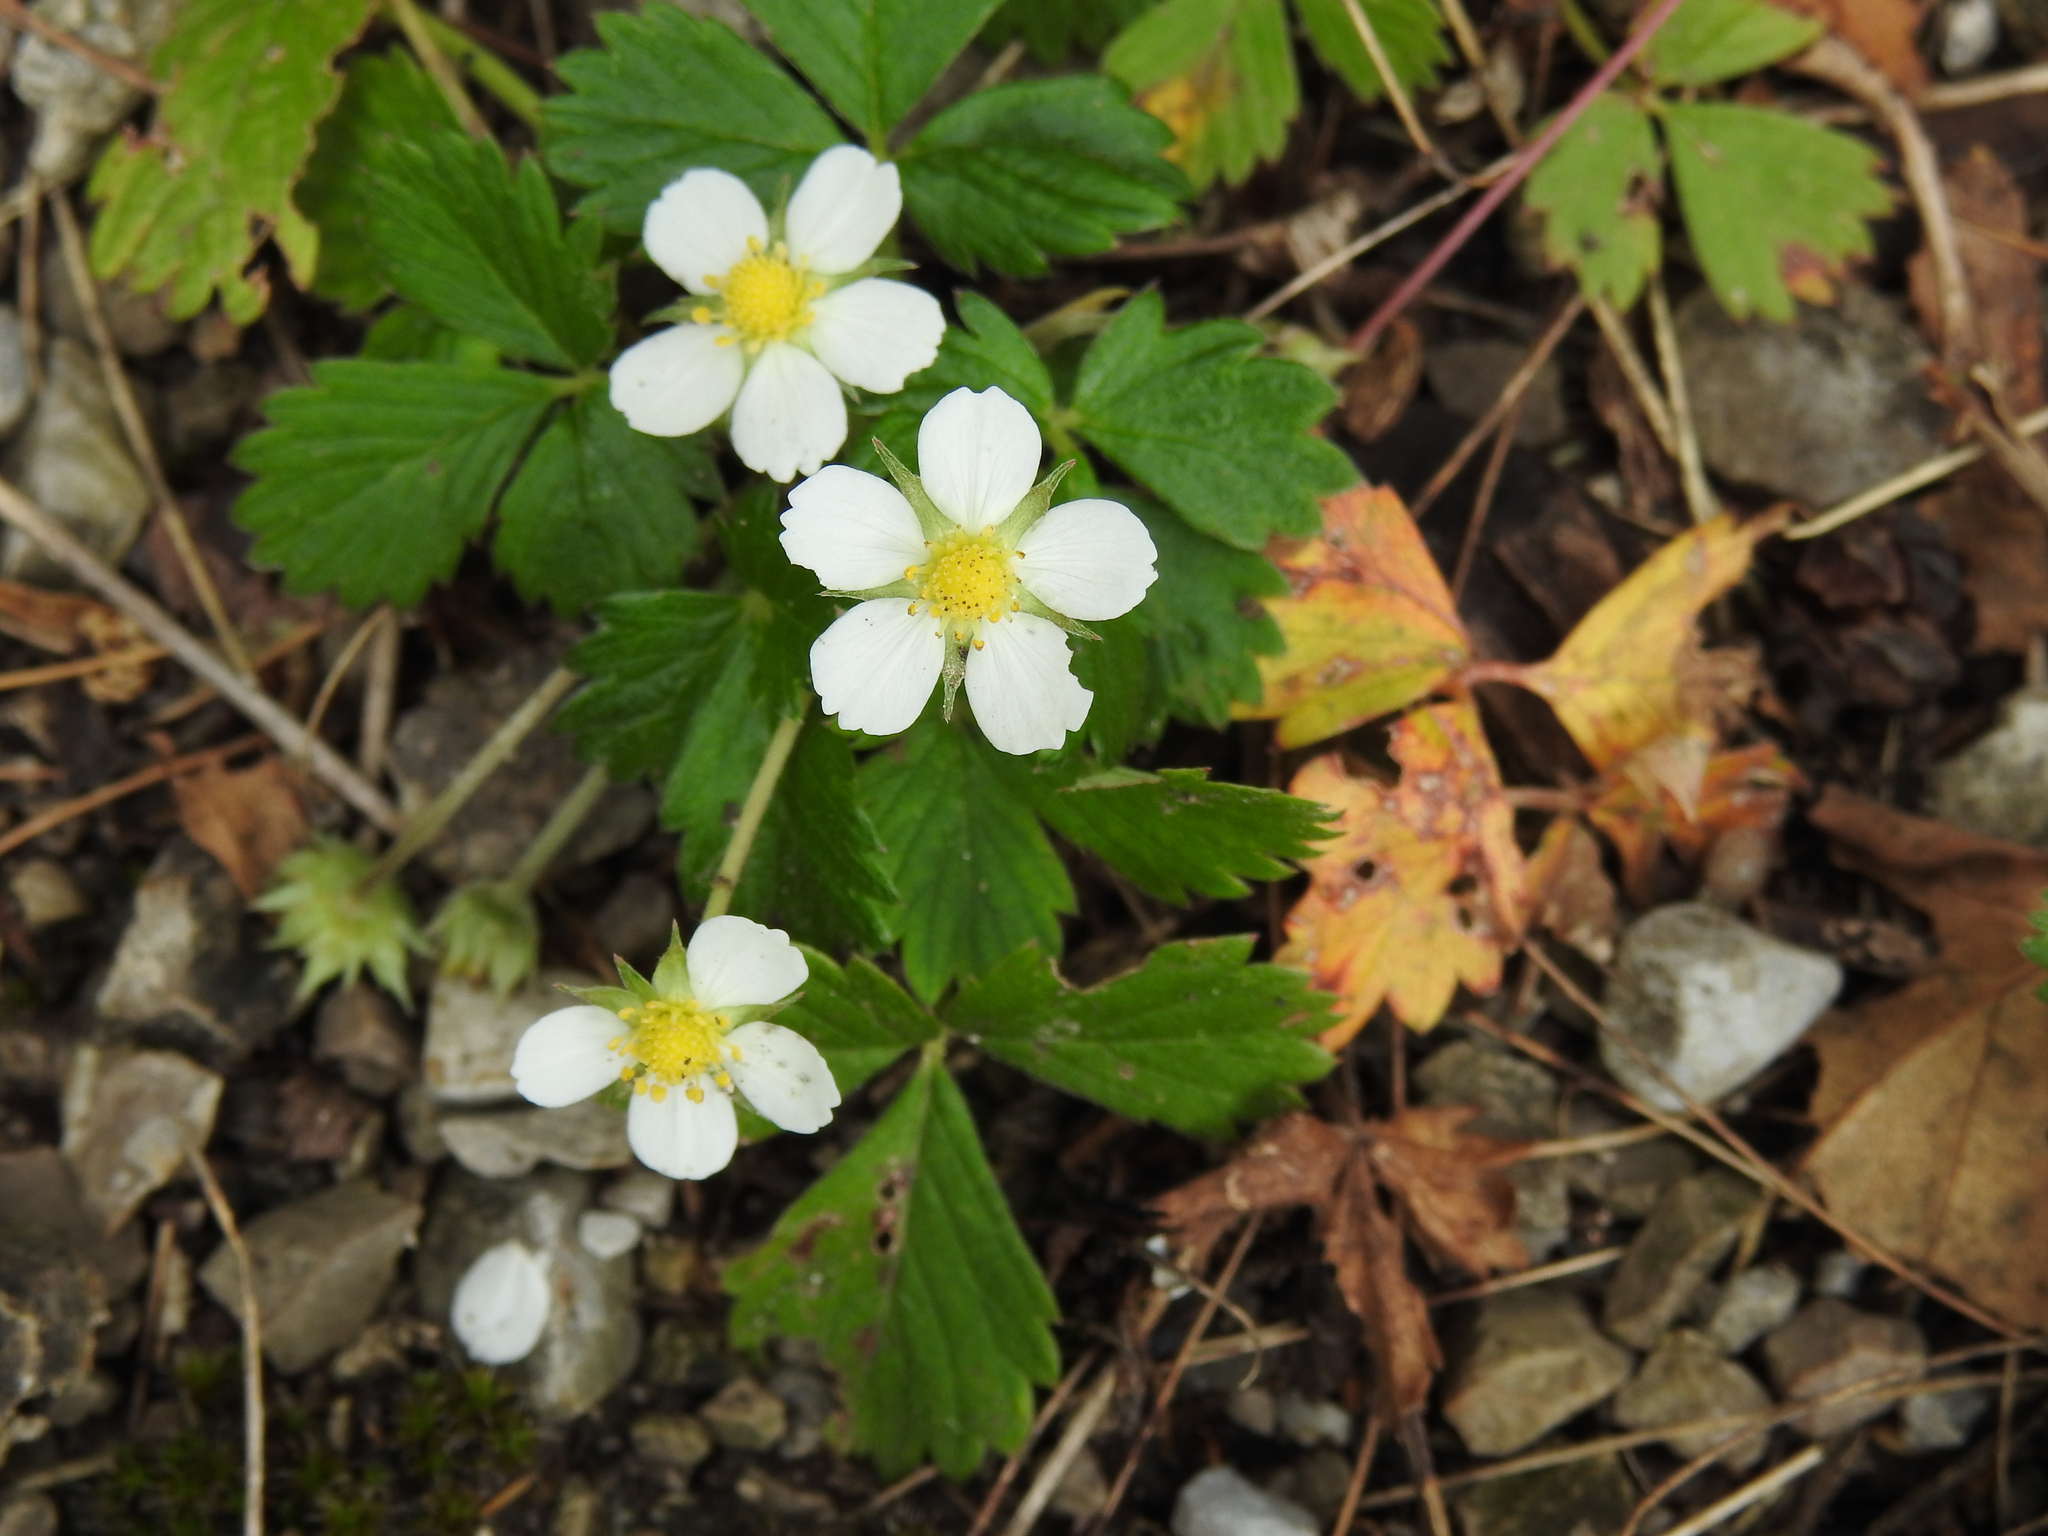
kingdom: Plantae
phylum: Tracheophyta
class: Magnoliopsida
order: Rosales
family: Rosaceae
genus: Fragaria
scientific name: Fragaria vesca
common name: Wild strawberry
